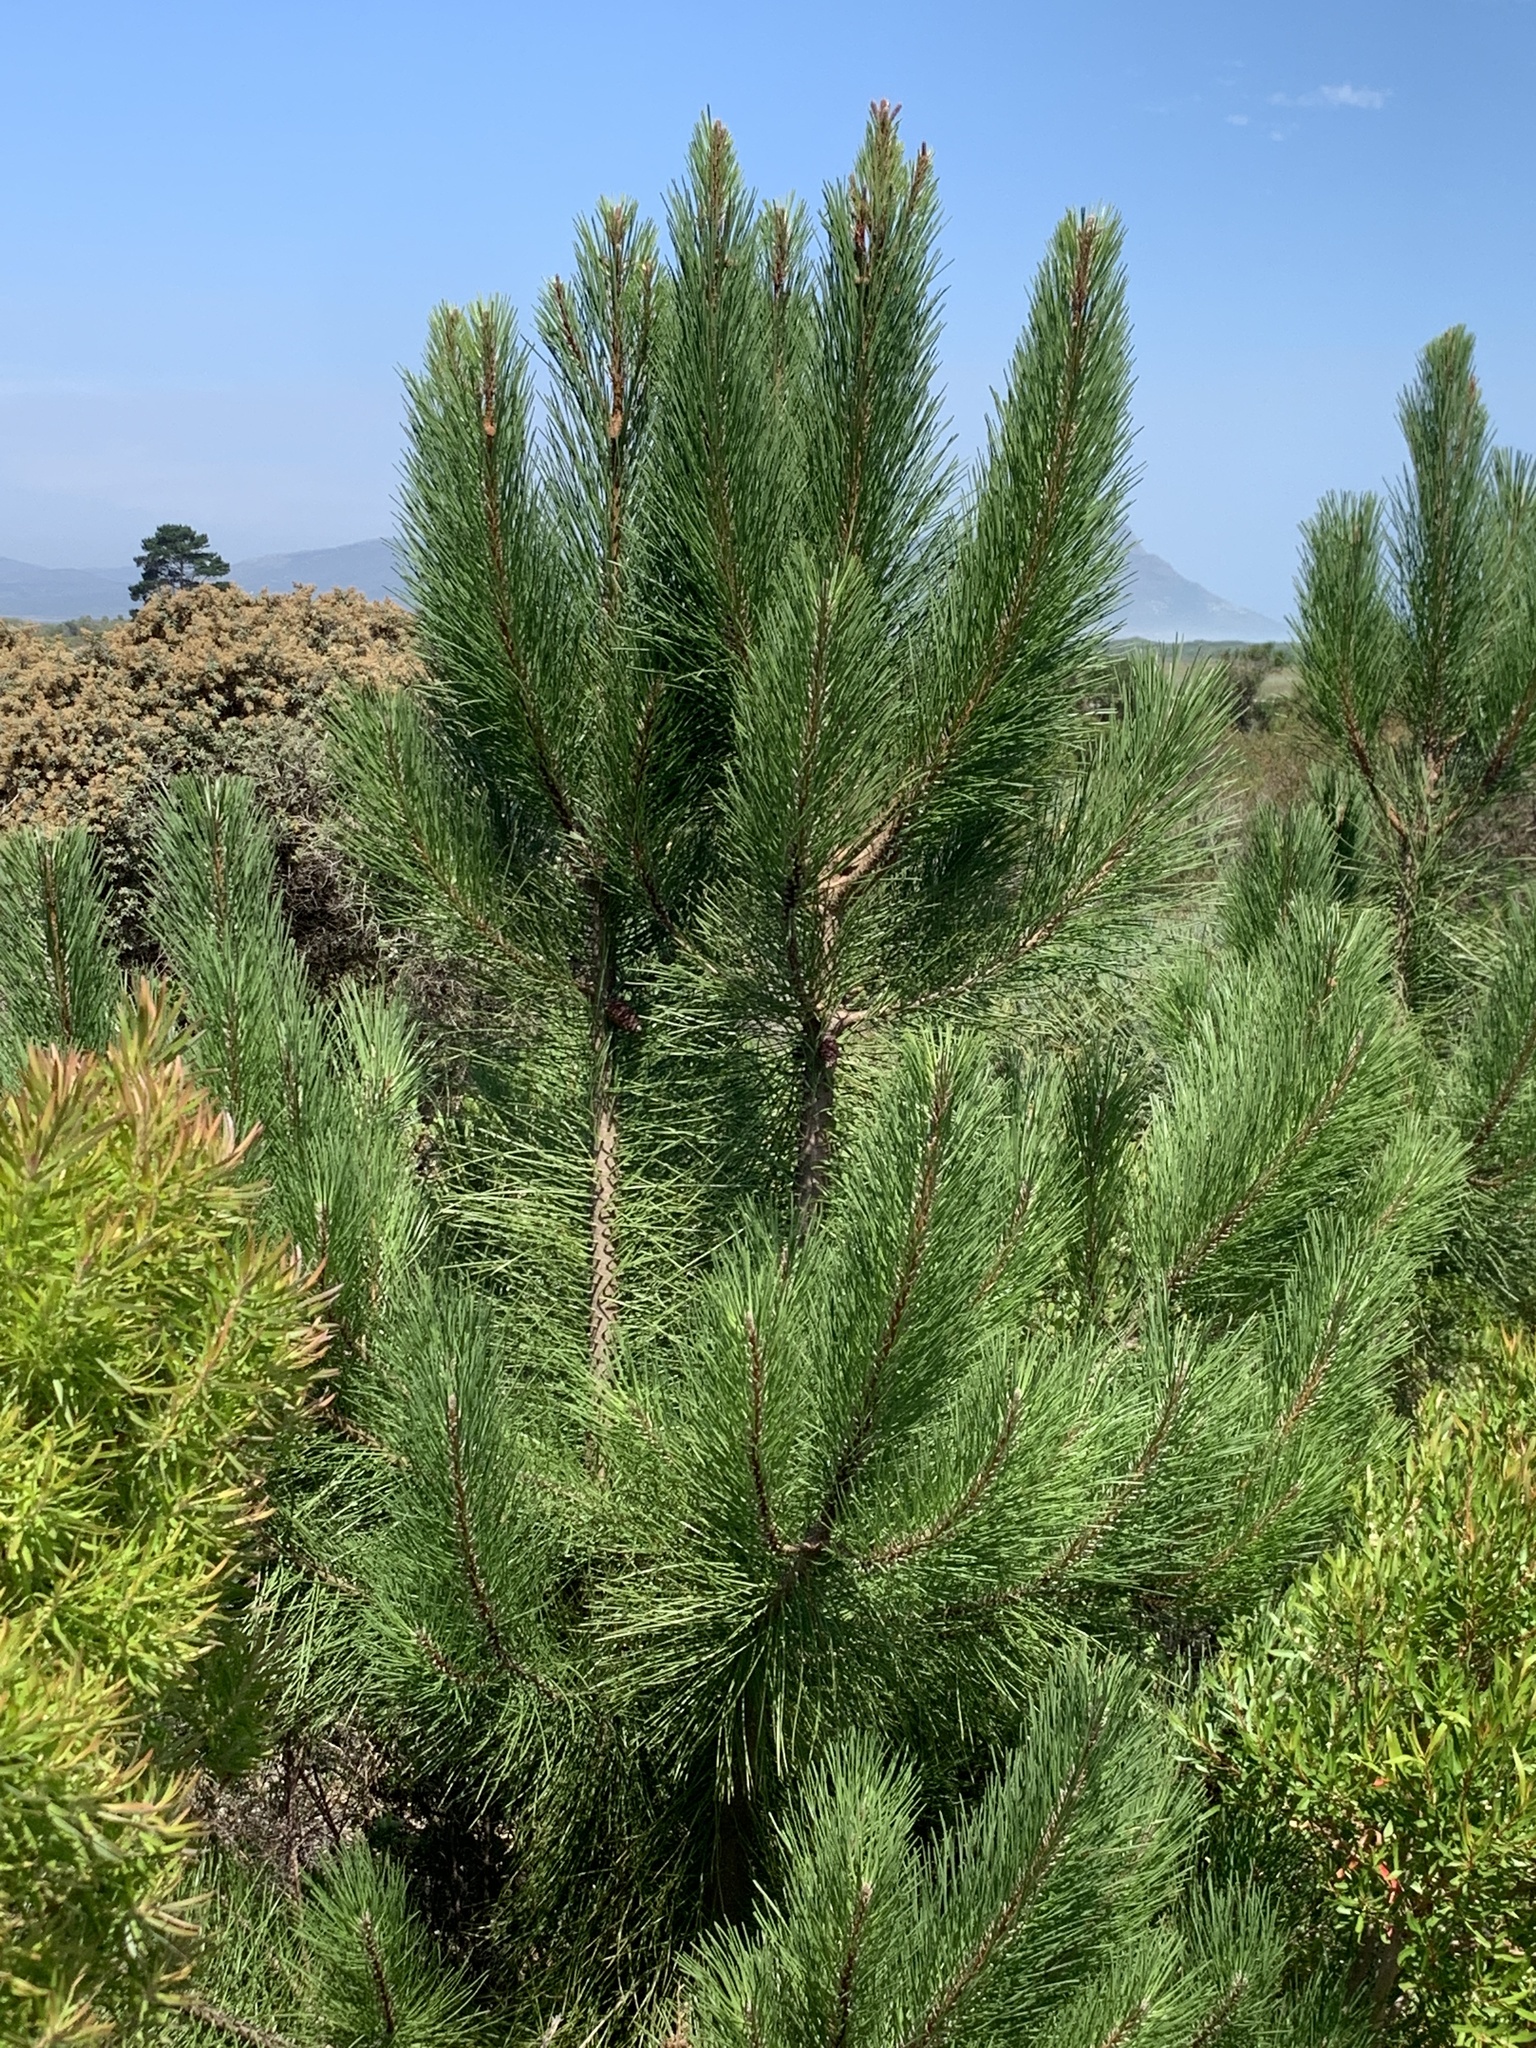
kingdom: Plantae
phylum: Tracheophyta
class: Pinopsida
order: Pinales
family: Pinaceae
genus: Pinus
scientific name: Pinus pinaster
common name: Maritime pine
